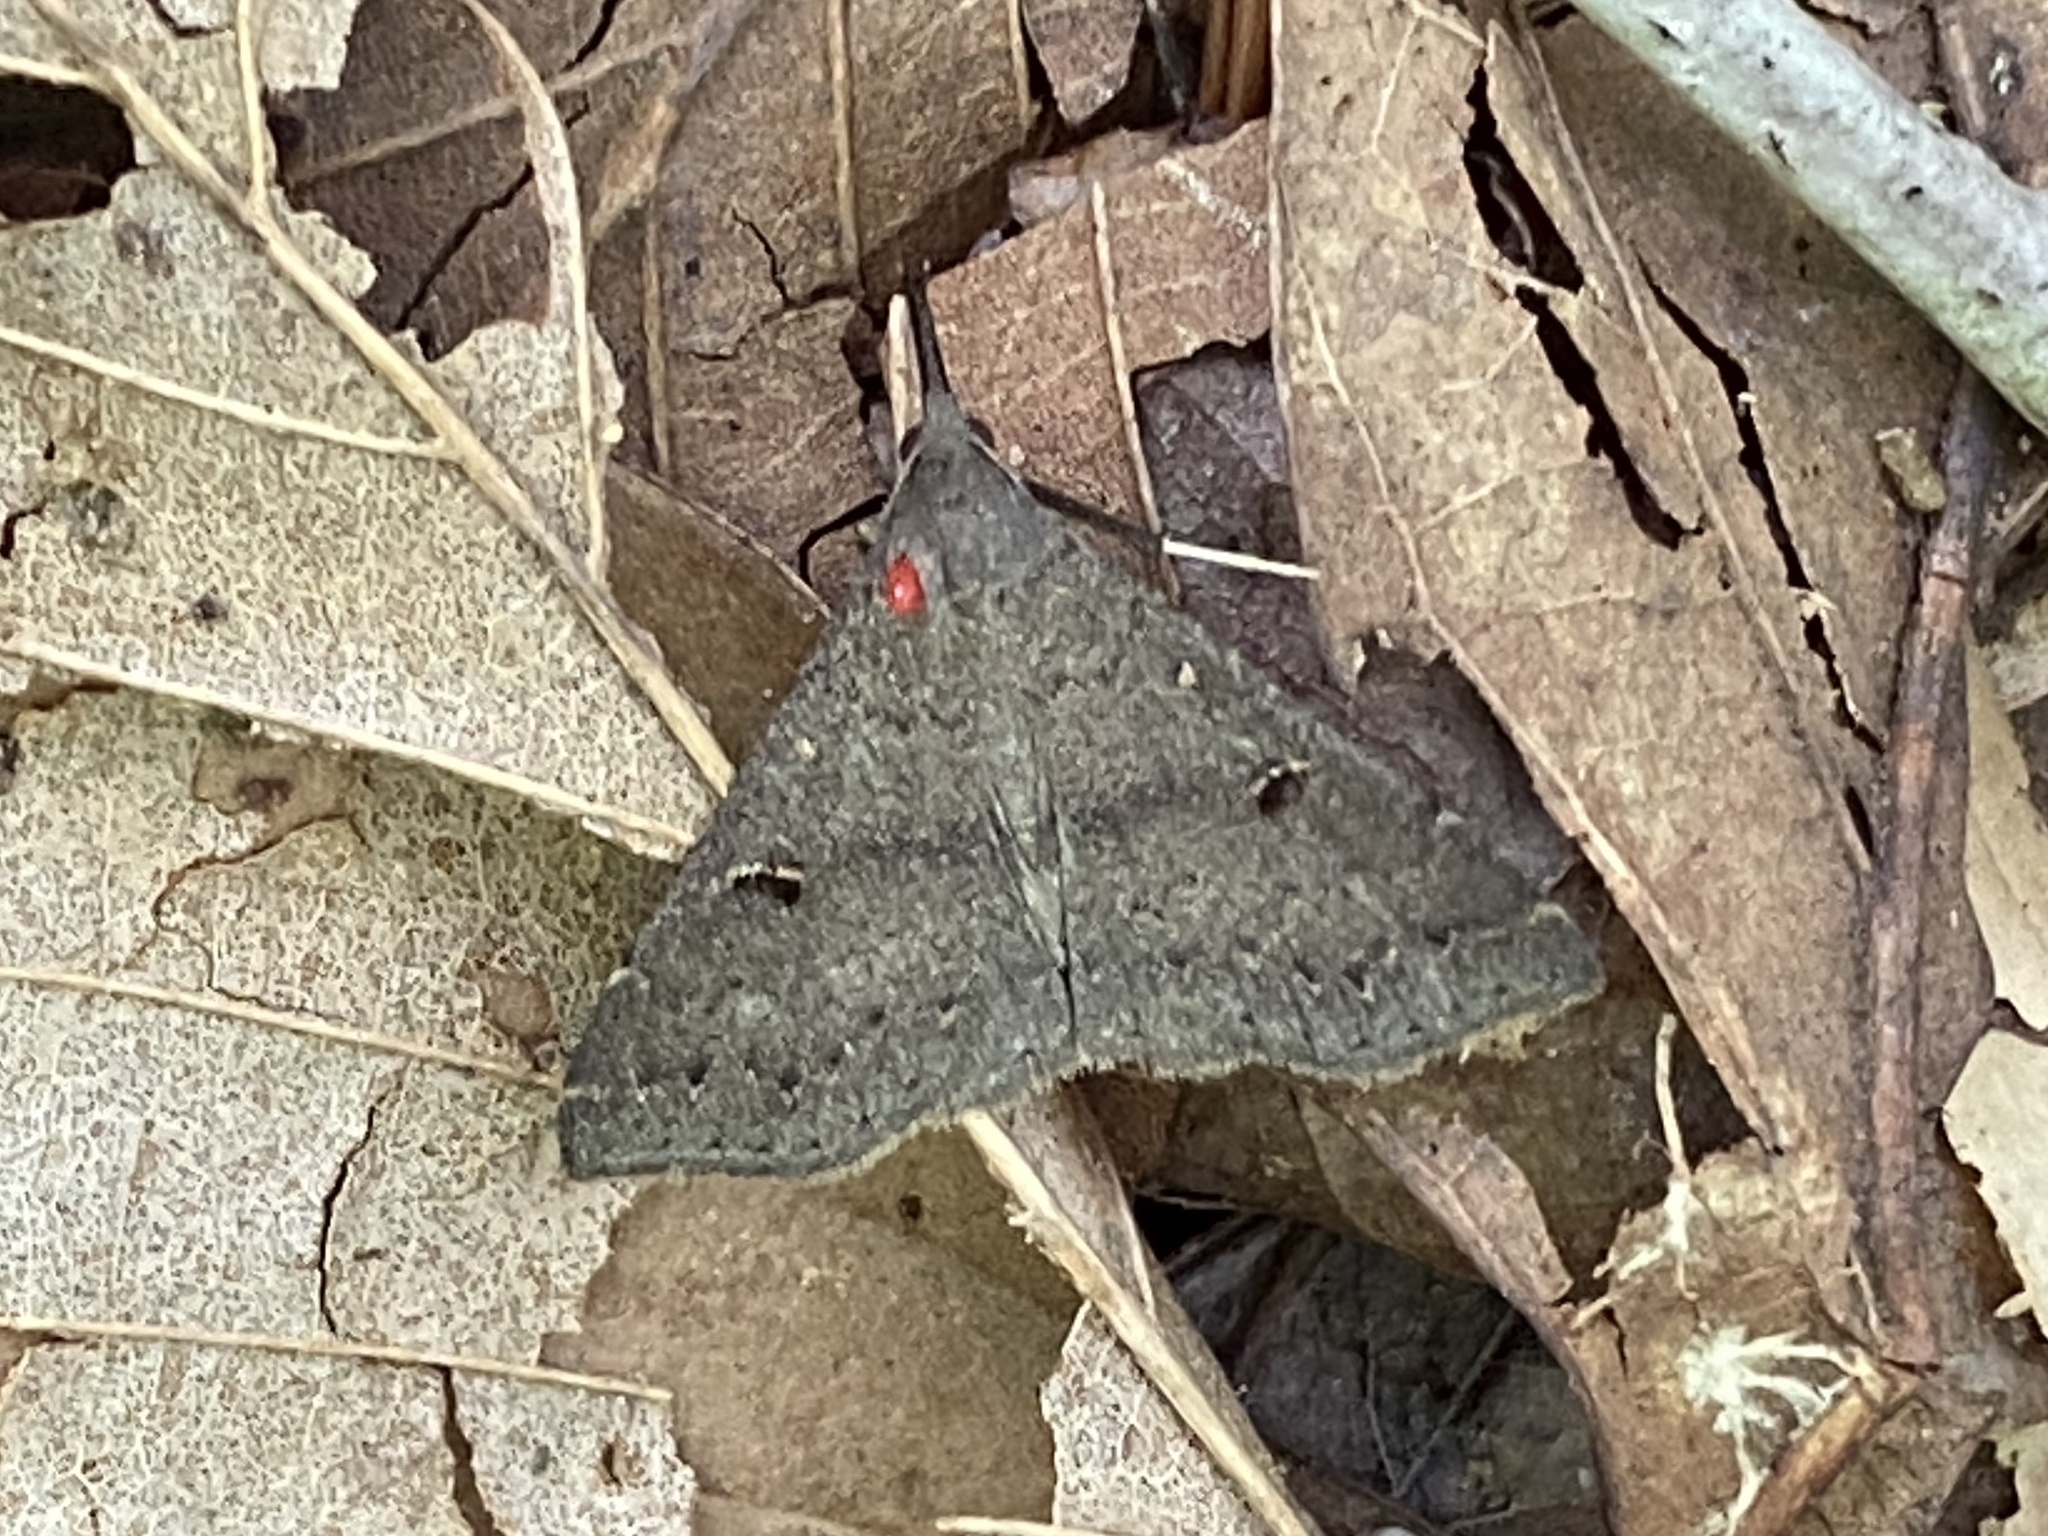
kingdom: Animalia
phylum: Arthropoda
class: Insecta
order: Lepidoptera
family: Erebidae
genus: Renia
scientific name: Renia adspergillus
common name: Speckled renia moth
